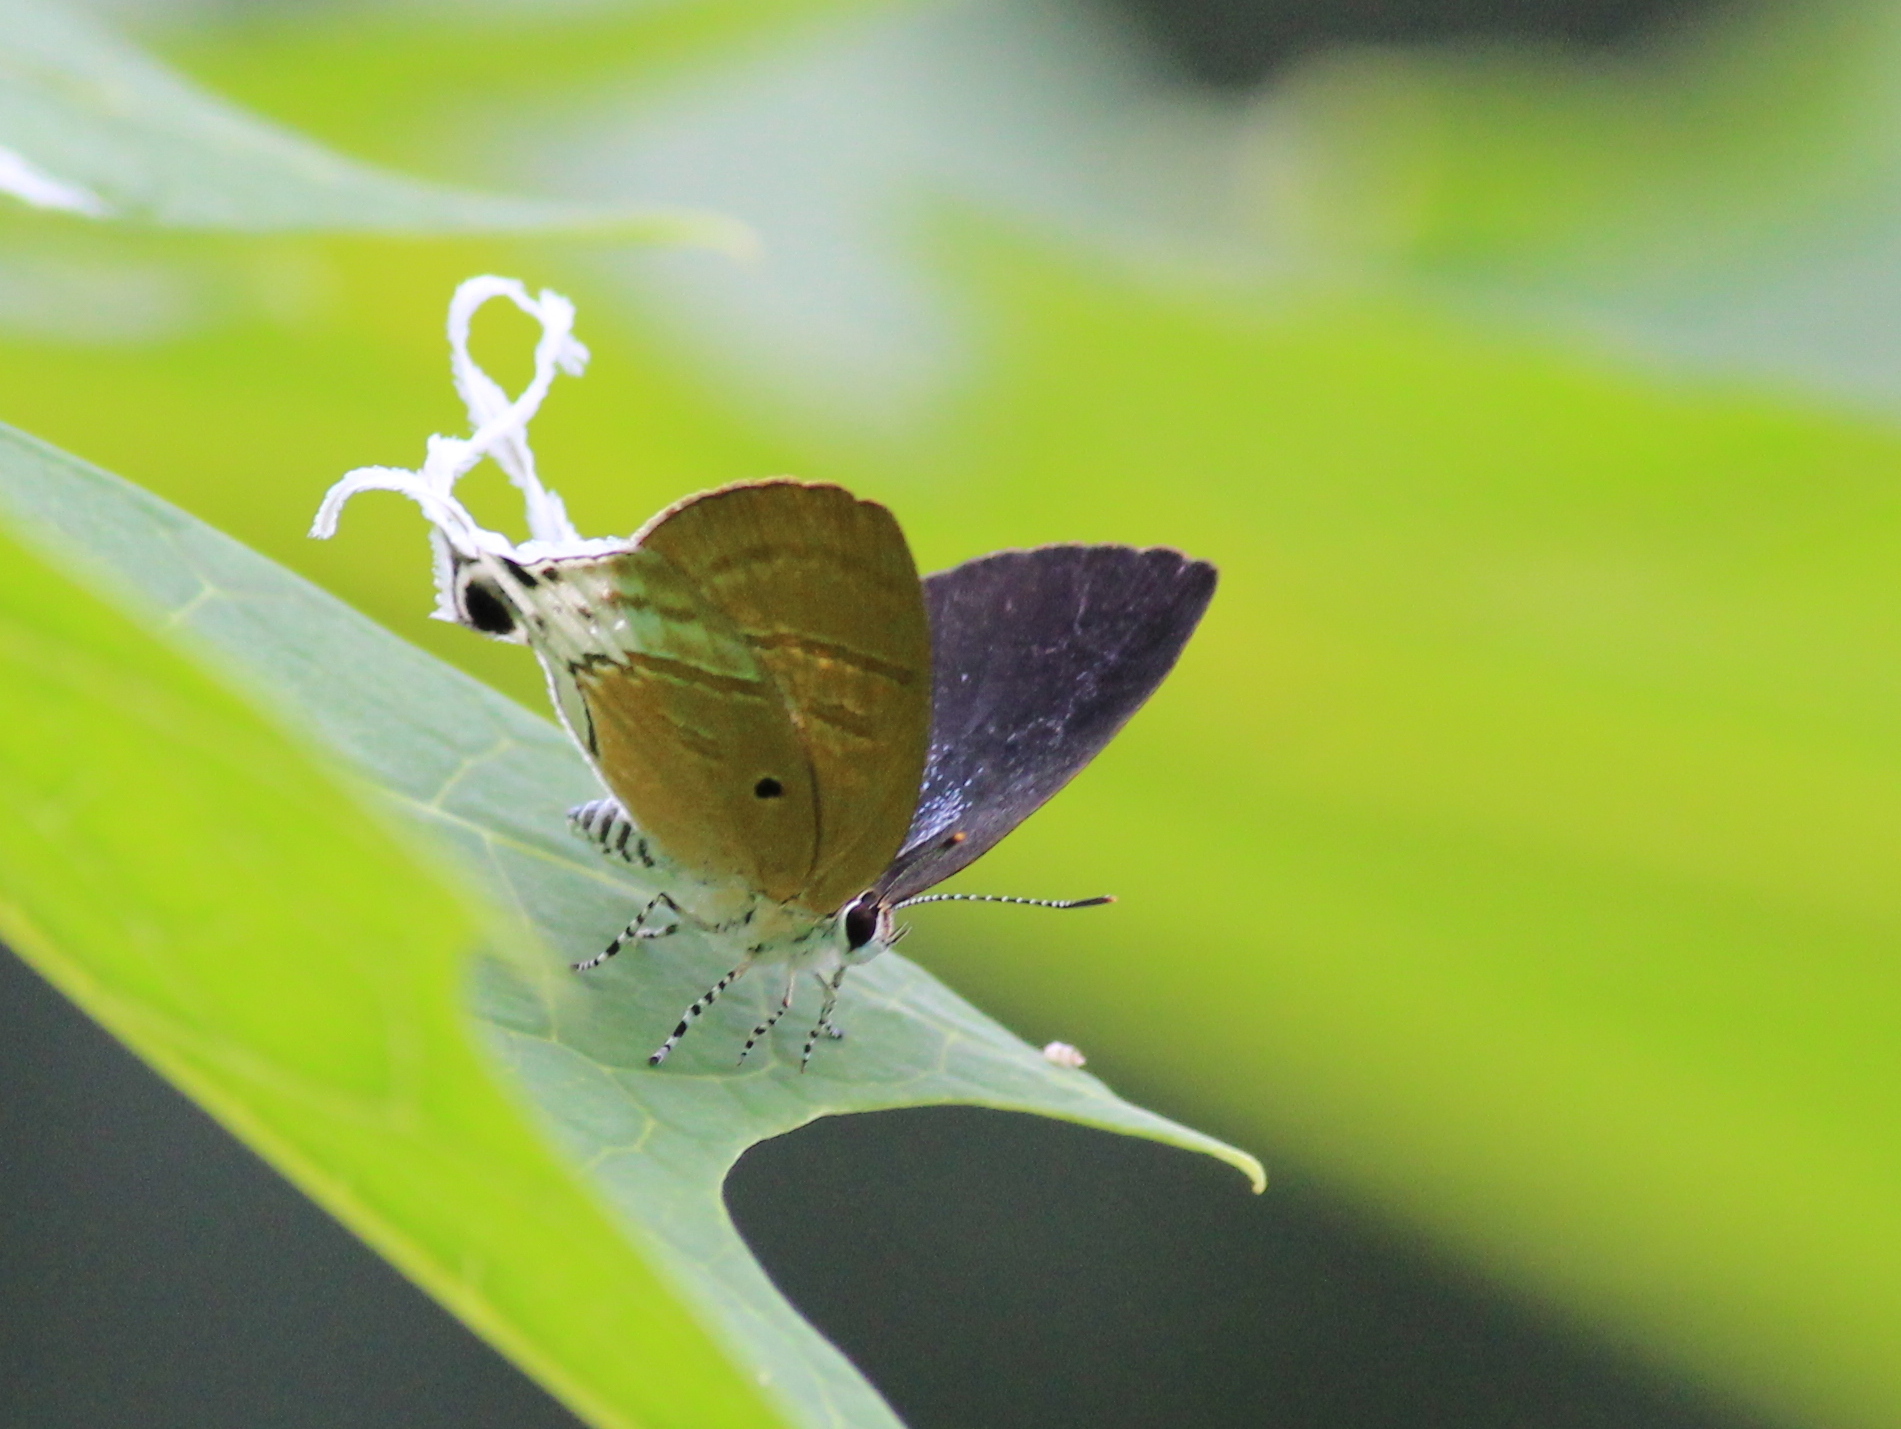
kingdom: Animalia
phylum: Arthropoda
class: Insecta
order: Lepidoptera
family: Lycaenidae
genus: Zeltus
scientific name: Zeltus amasa
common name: Fluffy tit
